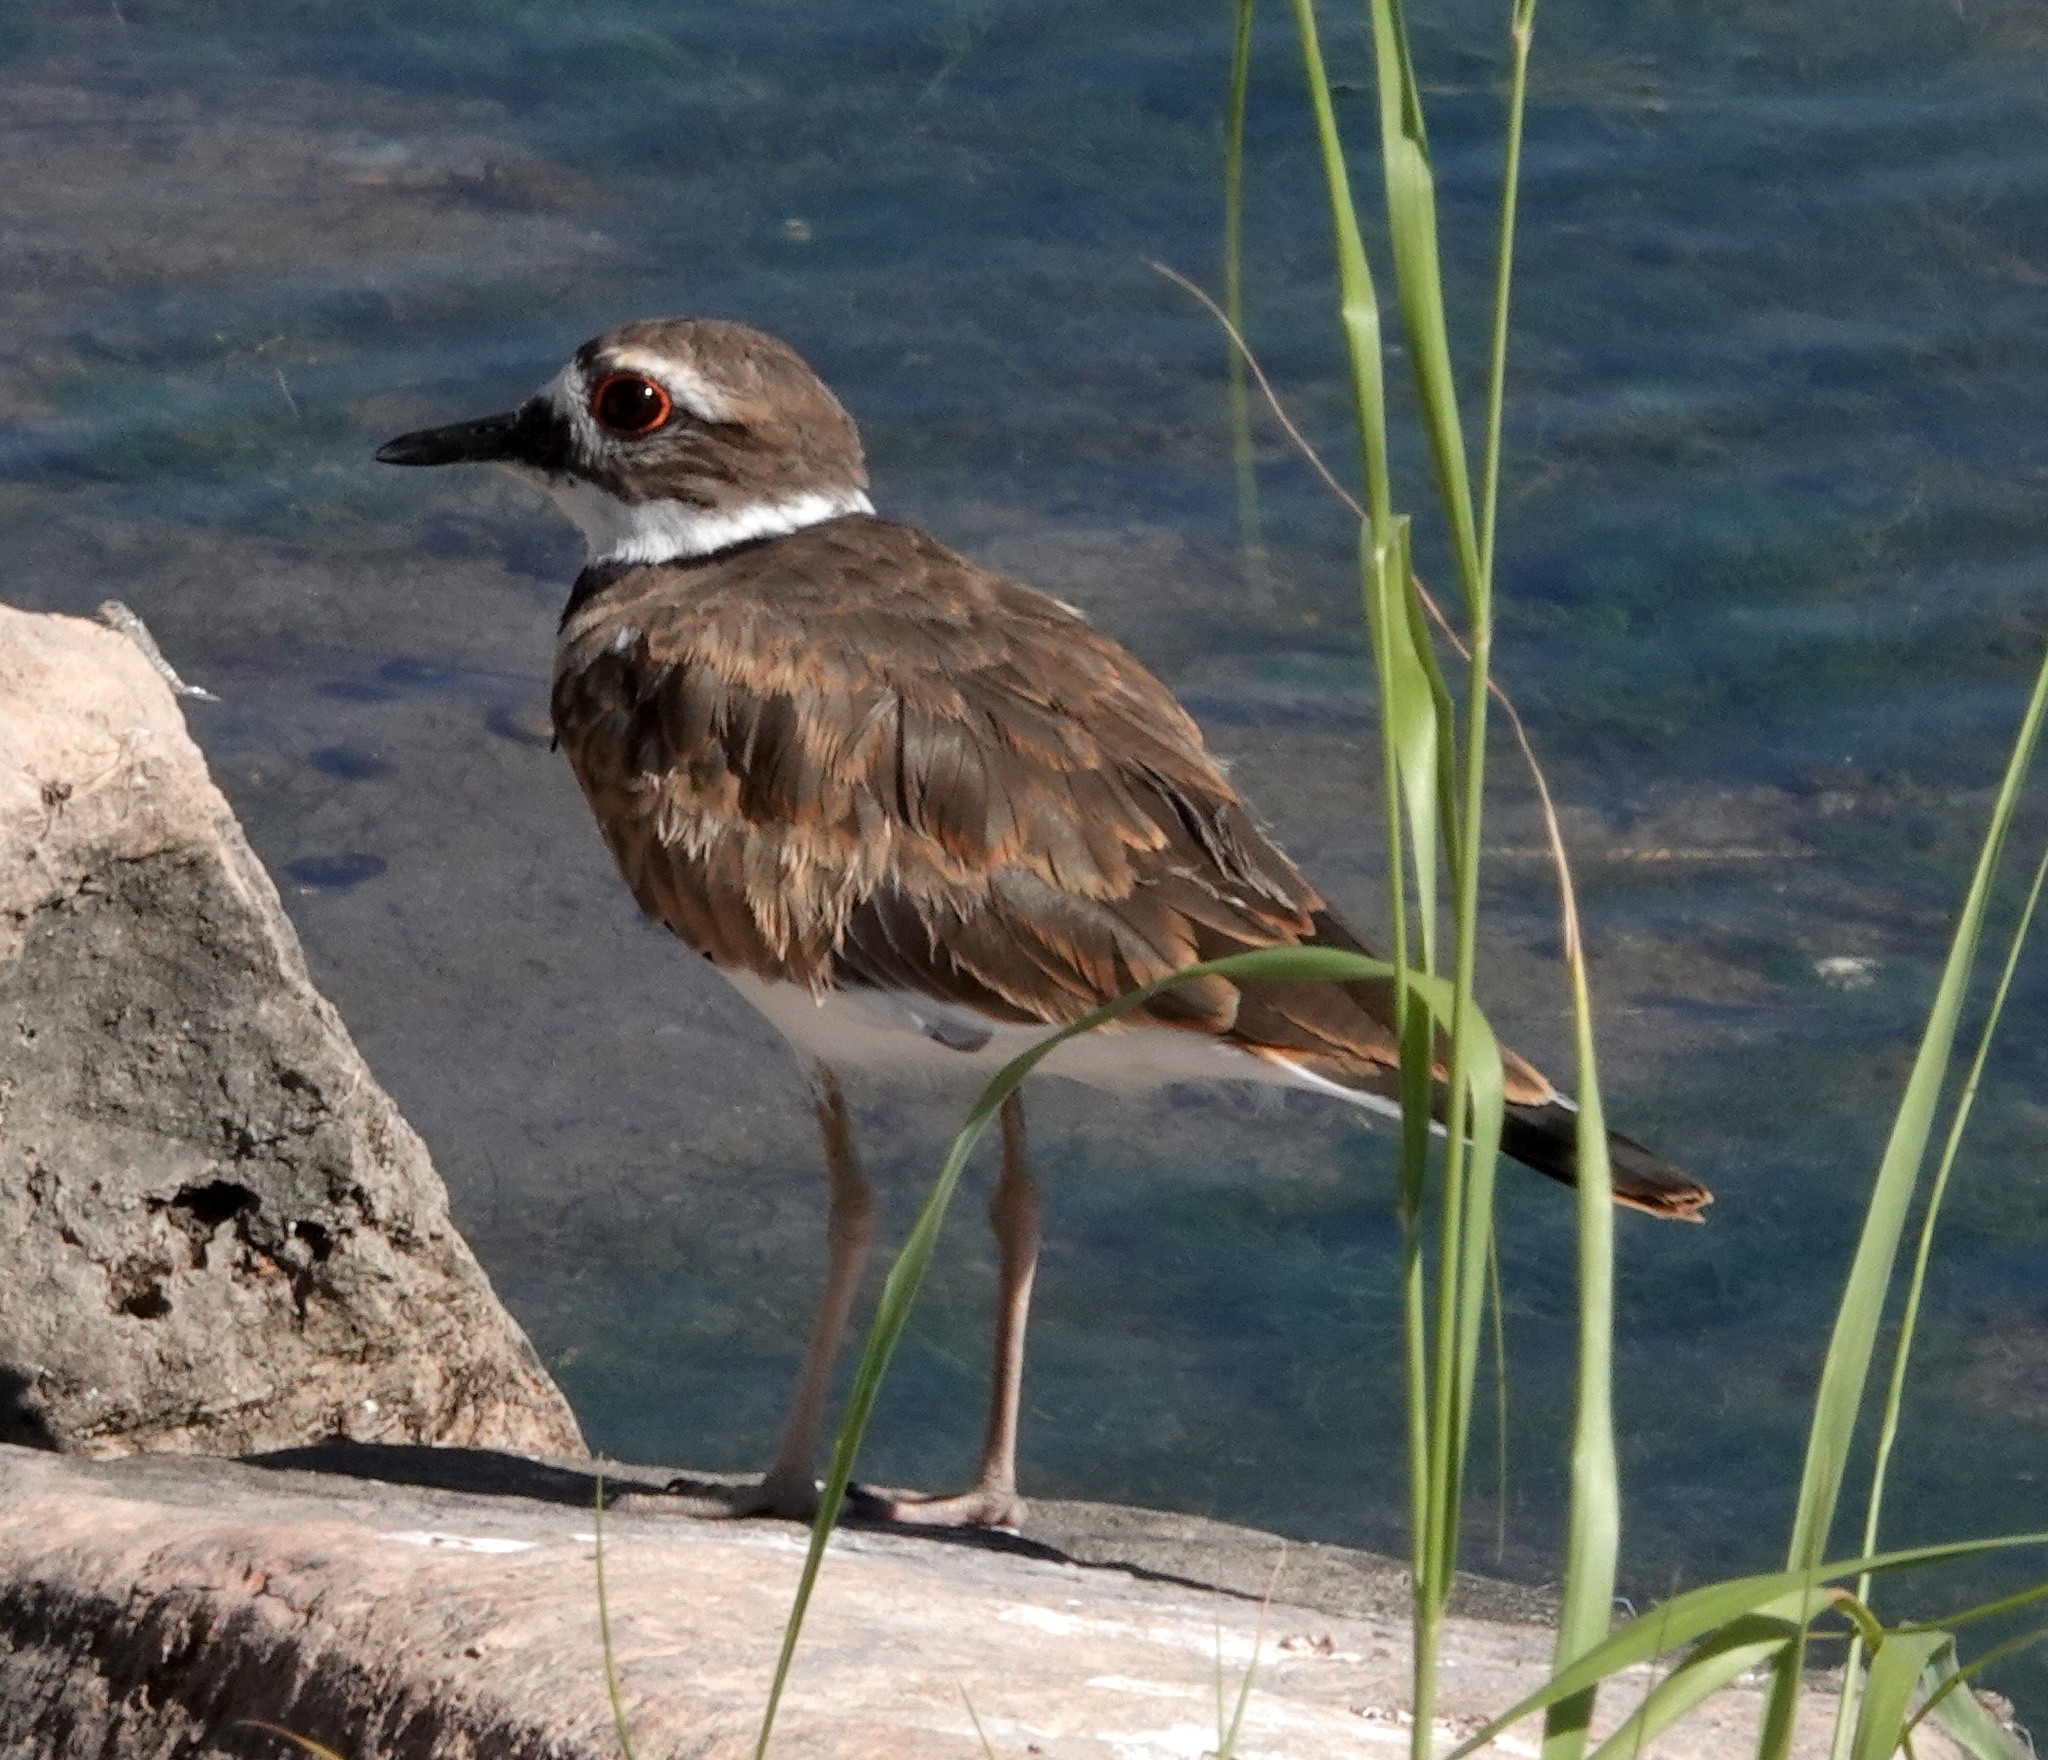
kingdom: Animalia
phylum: Chordata
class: Aves
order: Charadriiformes
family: Charadriidae
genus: Charadrius
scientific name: Charadrius vociferus
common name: Killdeer
